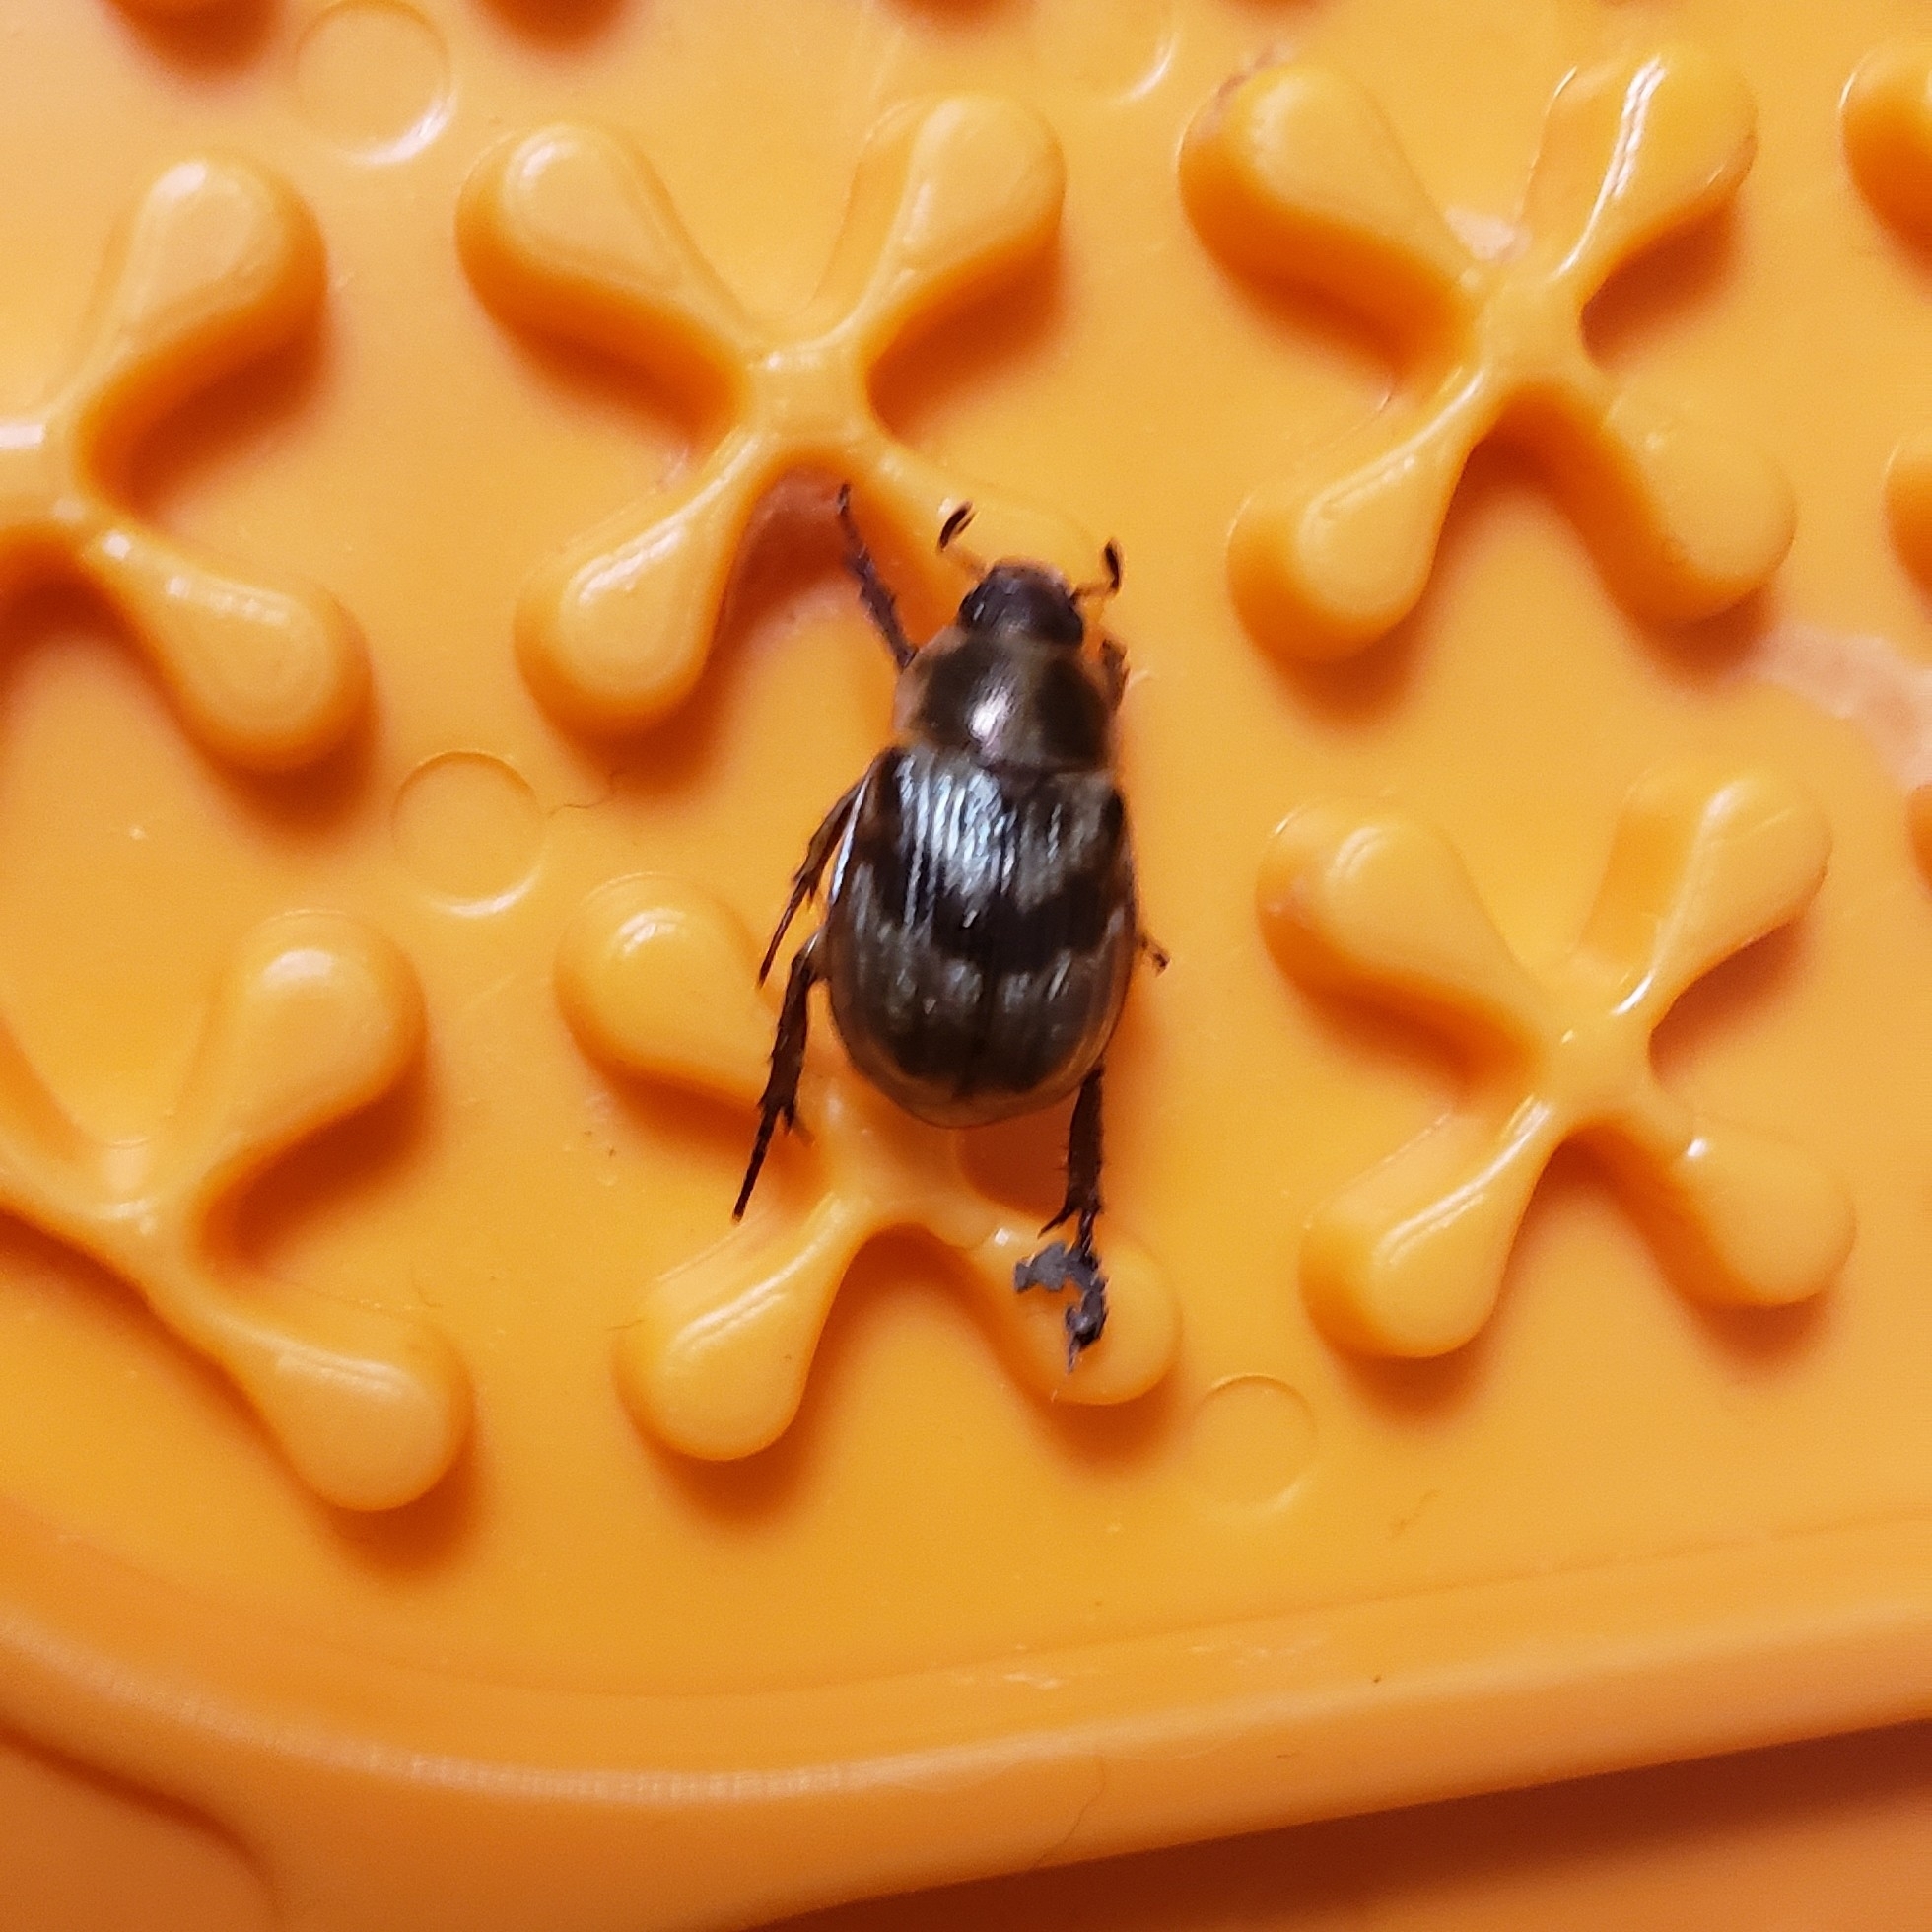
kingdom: Animalia
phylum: Arthropoda
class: Insecta
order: Coleoptera
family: Scarabaeidae
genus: Exomala
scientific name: Exomala orientalis
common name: Oriental beetle
